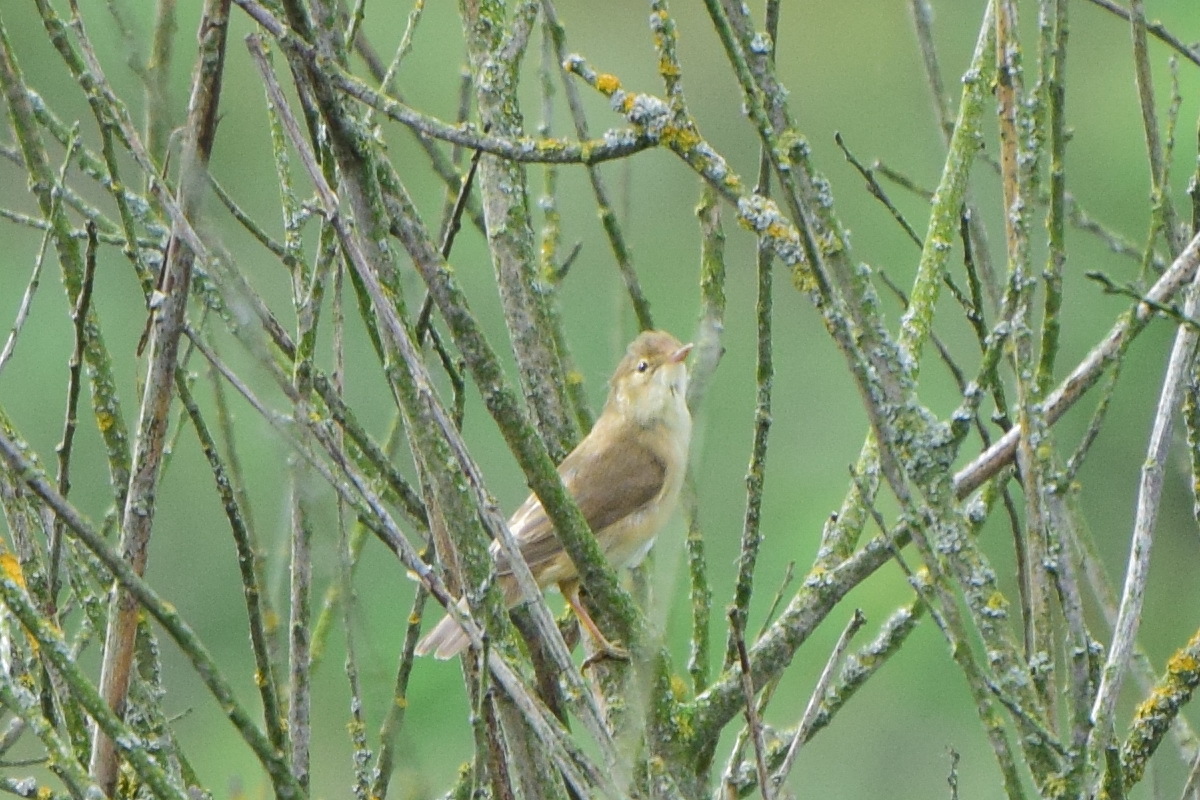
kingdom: Animalia
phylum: Chordata
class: Aves
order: Passeriformes
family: Acrocephalidae
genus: Acrocephalus
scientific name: Acrocephalus palustris
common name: Marsh warbler
